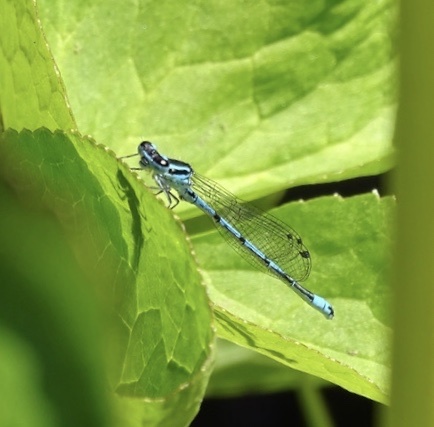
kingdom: Animalia
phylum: Arthropoda
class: Insecta
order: Odonata
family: Coenagrionidae
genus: Coenagrion
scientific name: Coenagrion puella
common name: Azure damselfly
